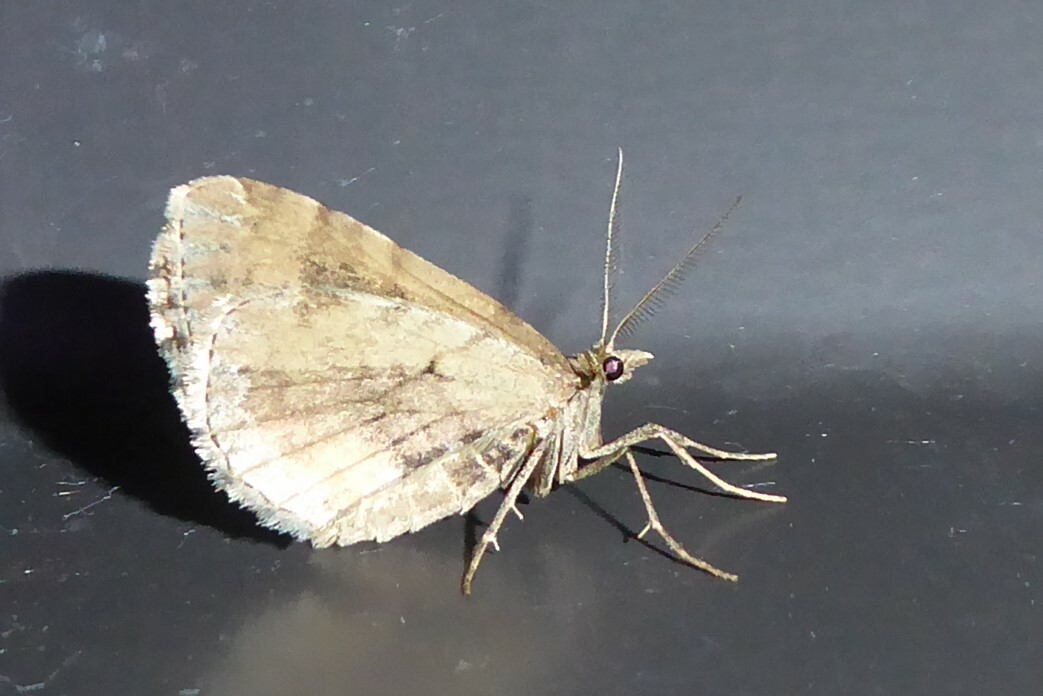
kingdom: Animalia
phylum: Arthropoda
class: Insecta
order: Lepidoptera
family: Geometridae
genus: Asaphodes
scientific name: Asaphodes aegrota
